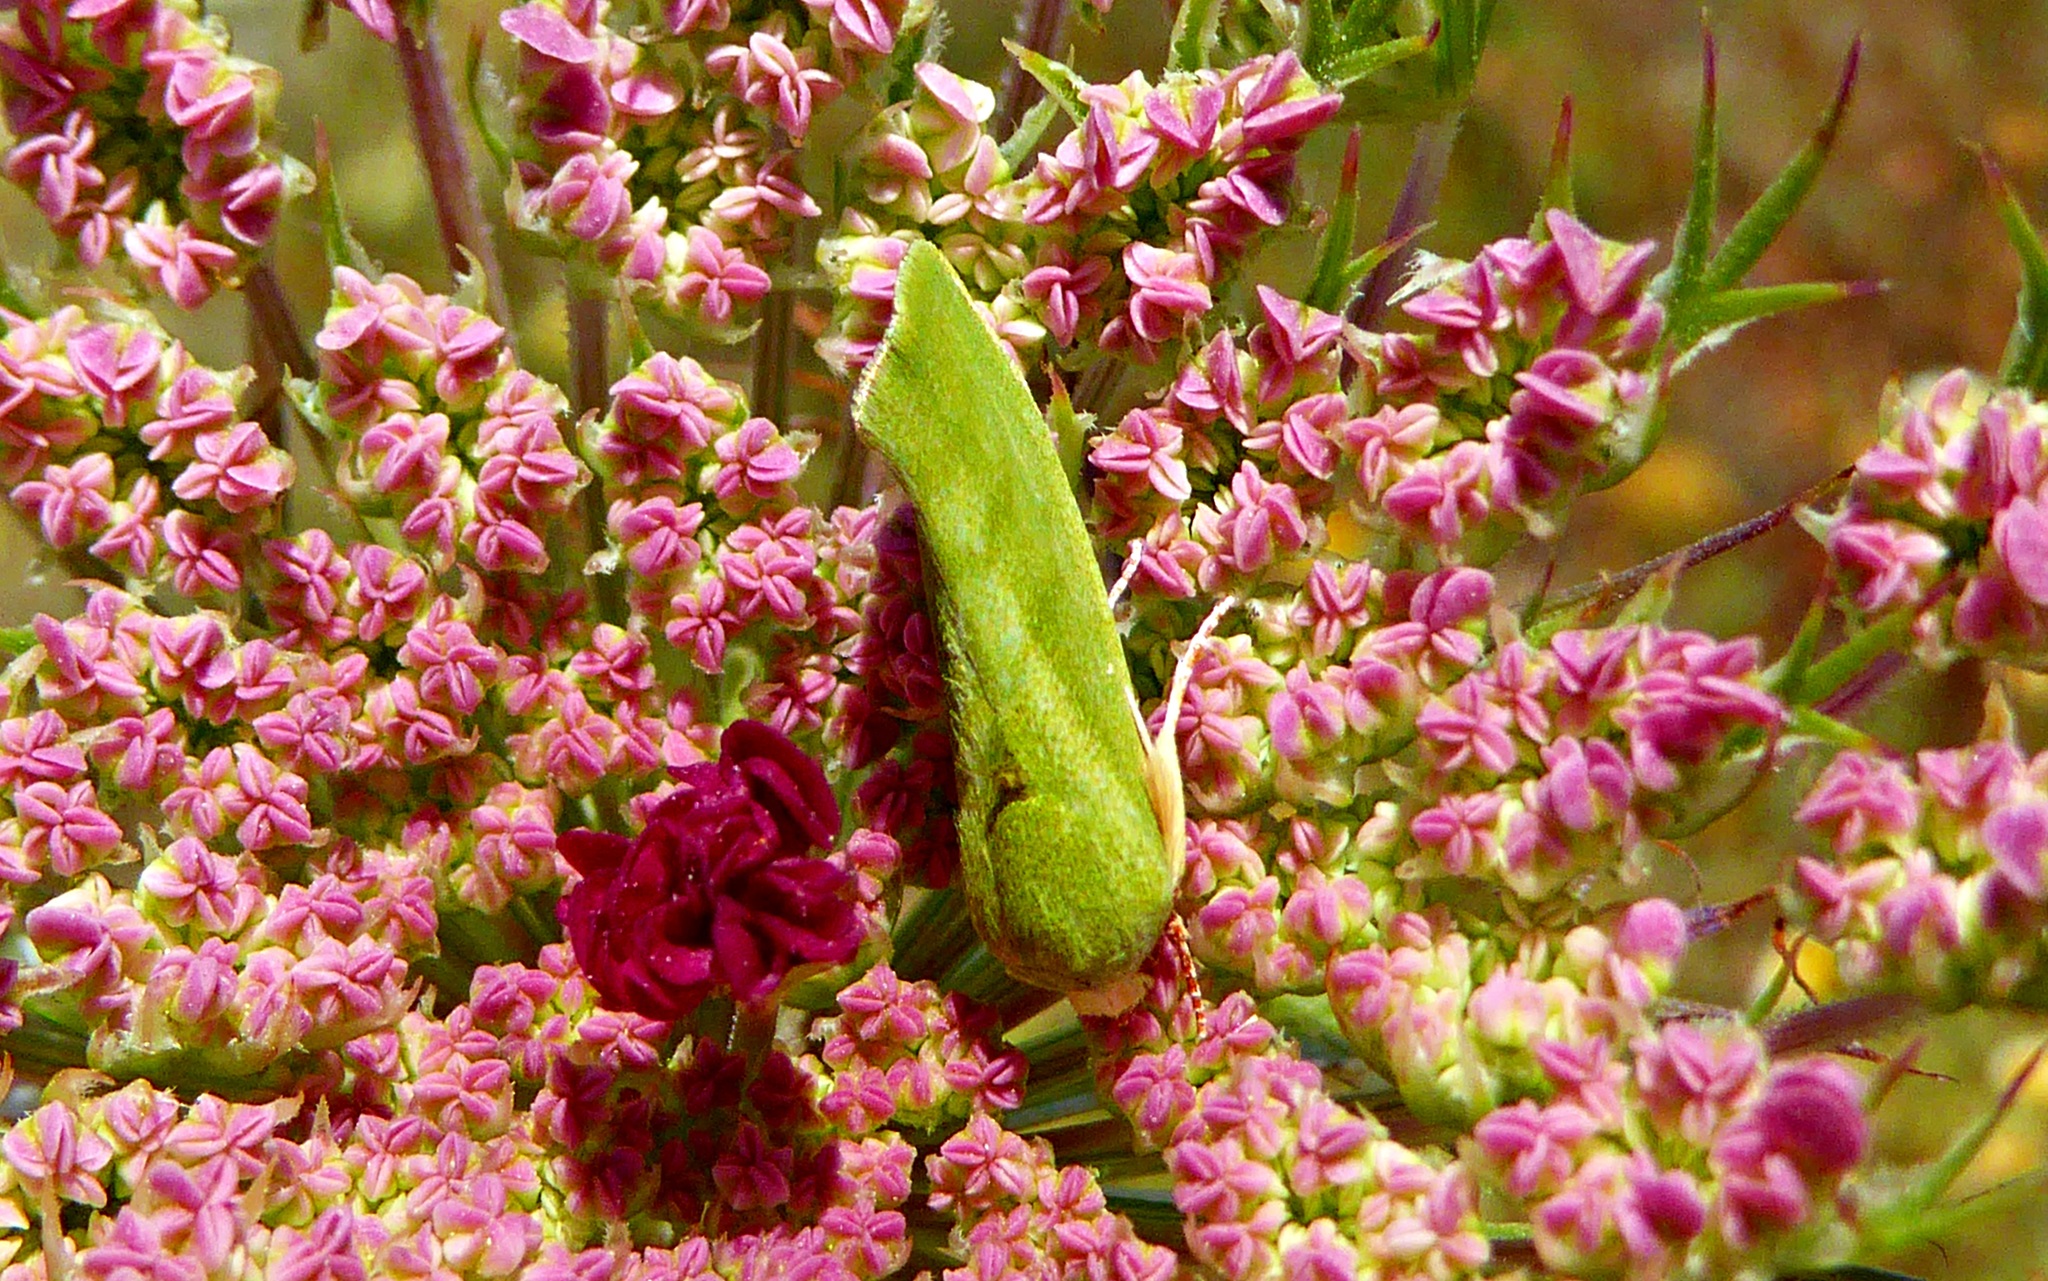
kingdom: Animalia
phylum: Arthropoda
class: Insecta
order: Lepidoptera
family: Nolidae
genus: Earias
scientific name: Earias insulana
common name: Egyptian bollworm
